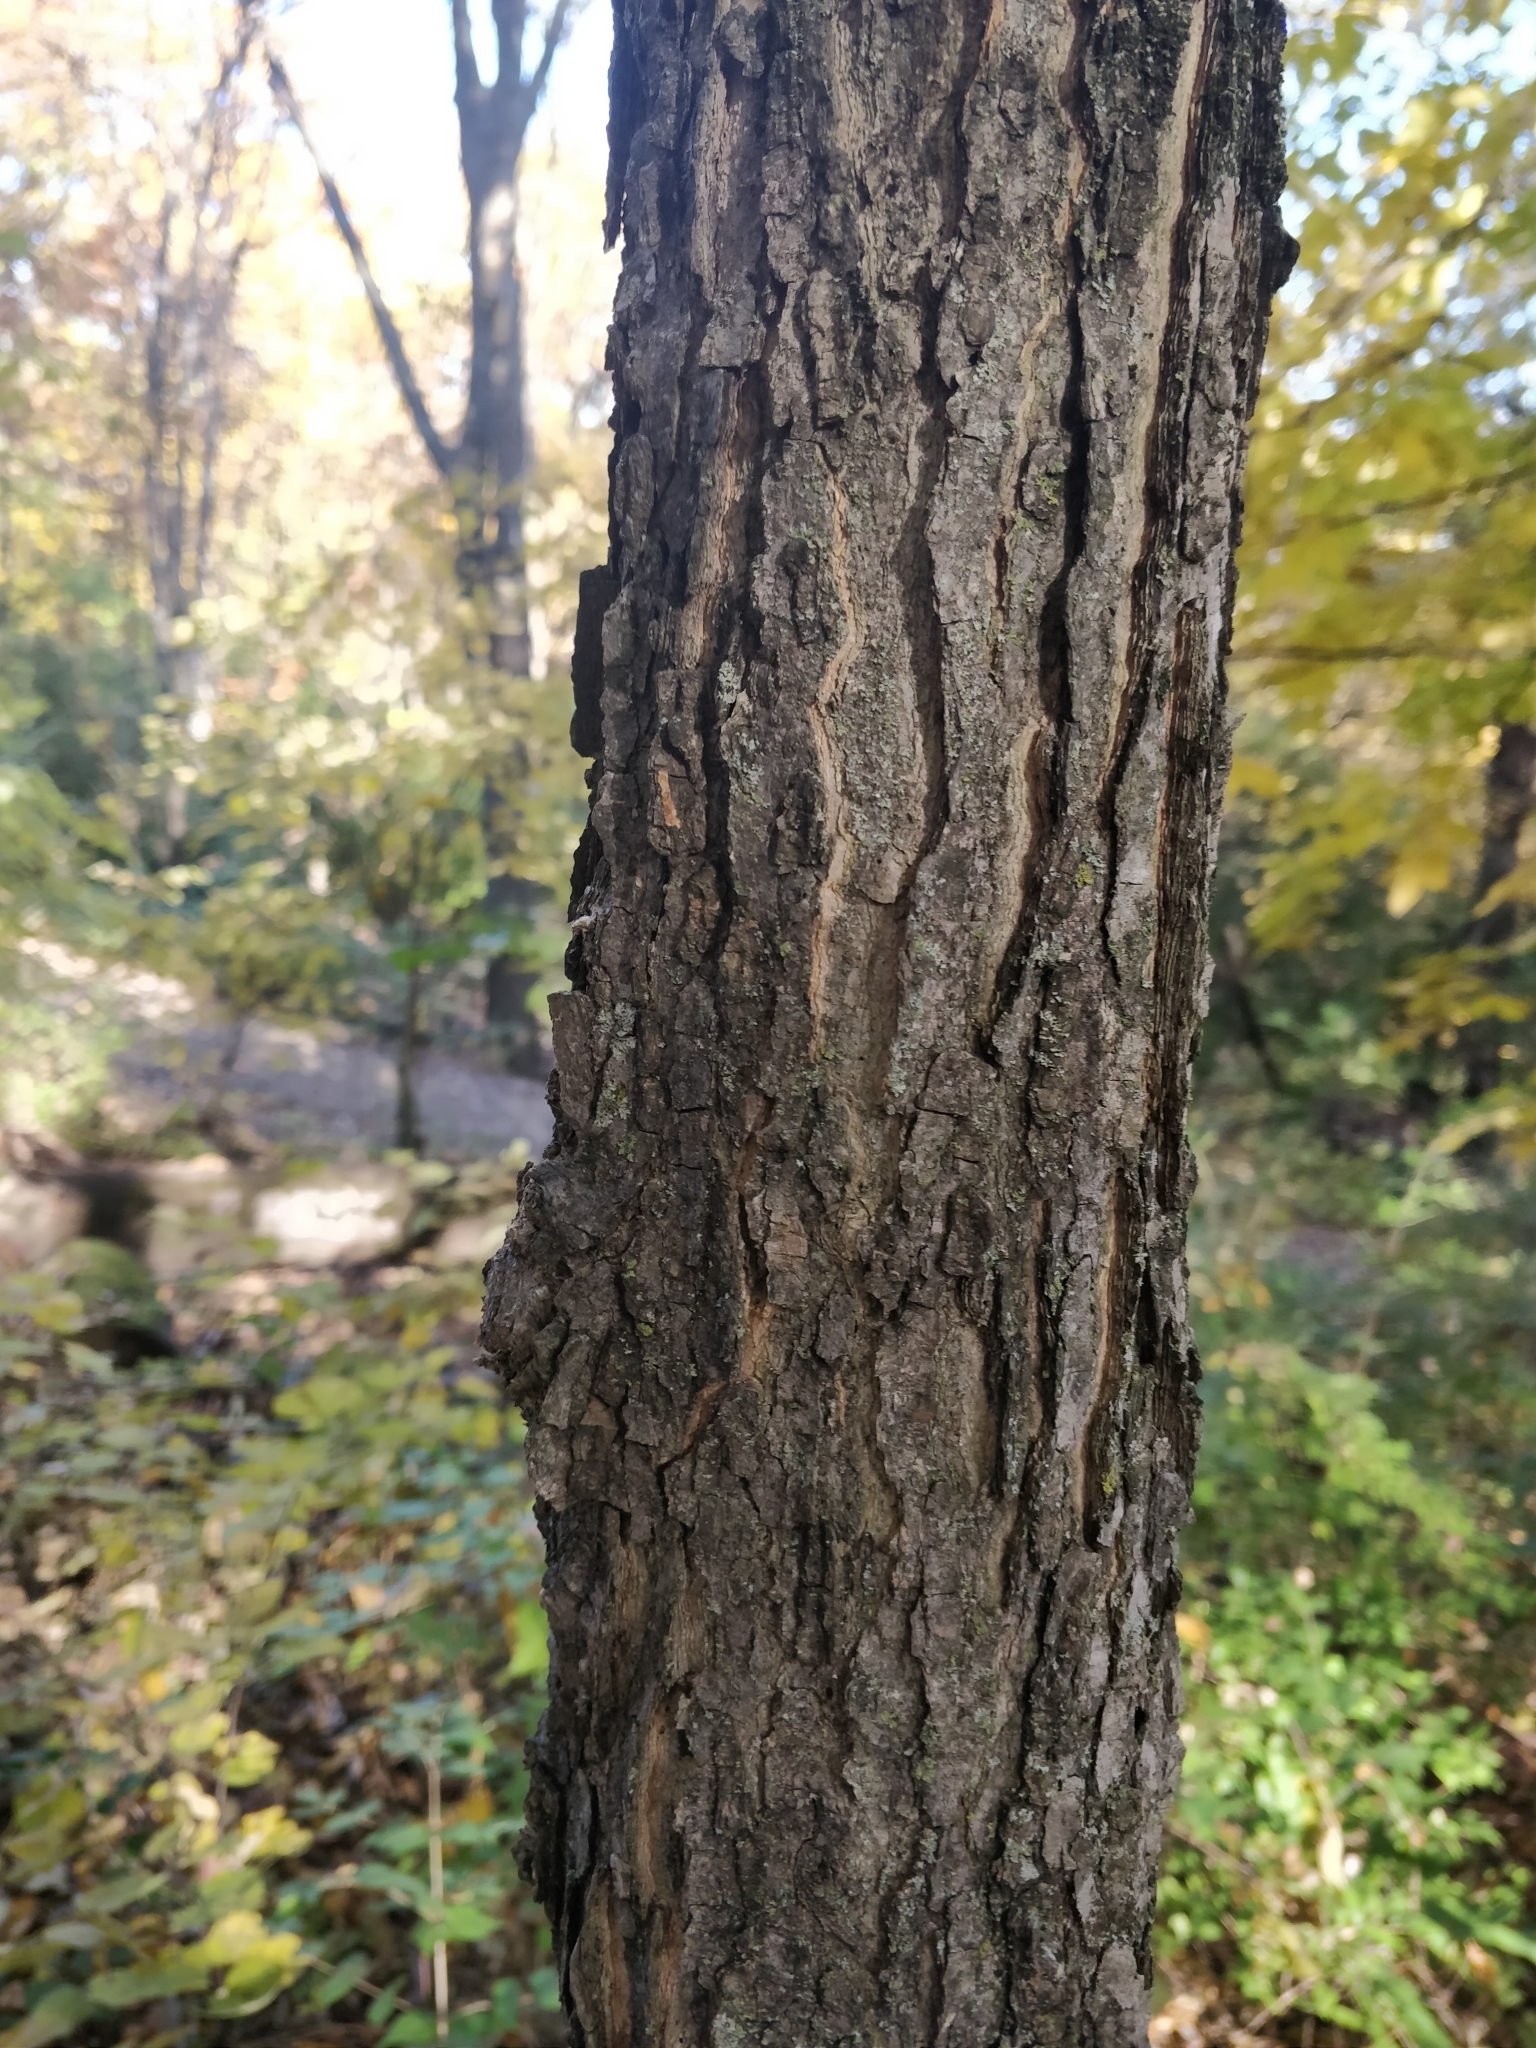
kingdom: Plantae
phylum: Tracheophyta
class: Magnoliopsida
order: Rosales
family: Cannabaceae
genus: Celtis
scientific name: Celtis occidentalis
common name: Common hackberry
